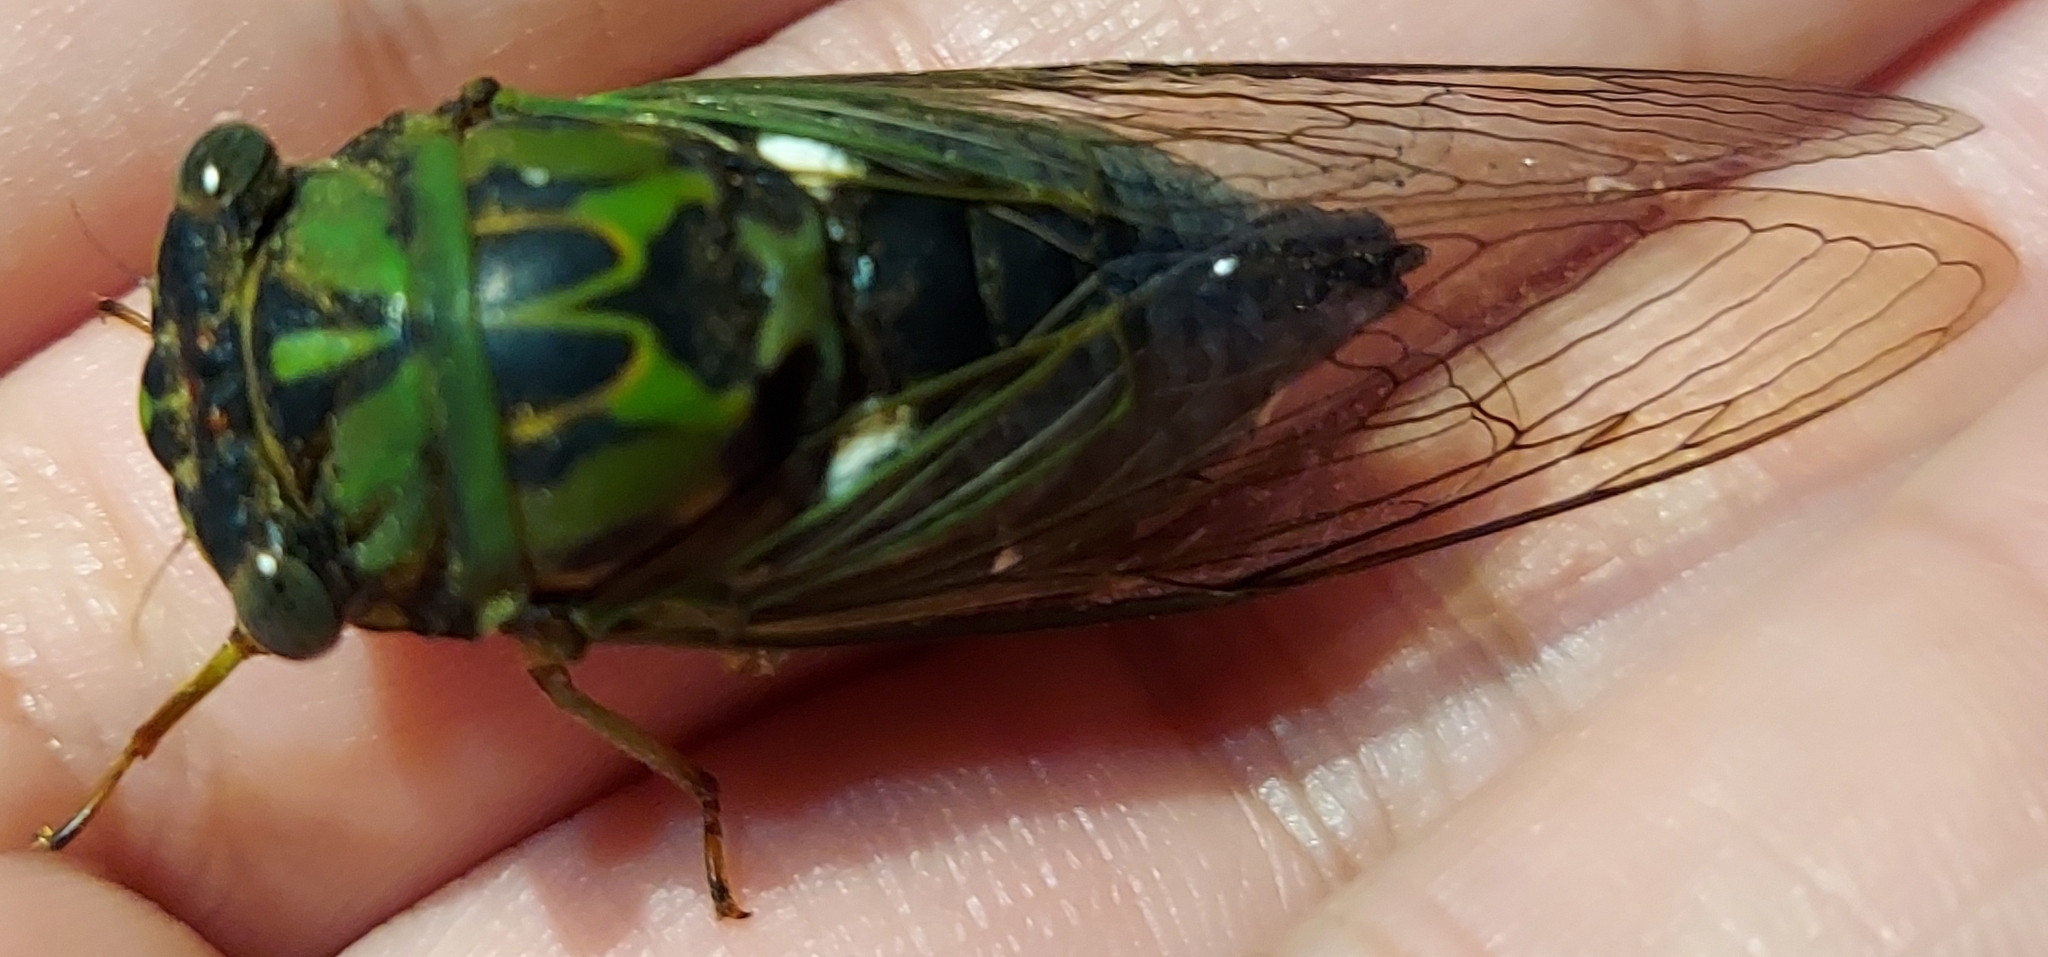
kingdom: Animalia
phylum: Arthropoda
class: Insecta
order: Hemiptera
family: Cicadidae
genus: Neotibicen
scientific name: Neotibicen pruinosus
